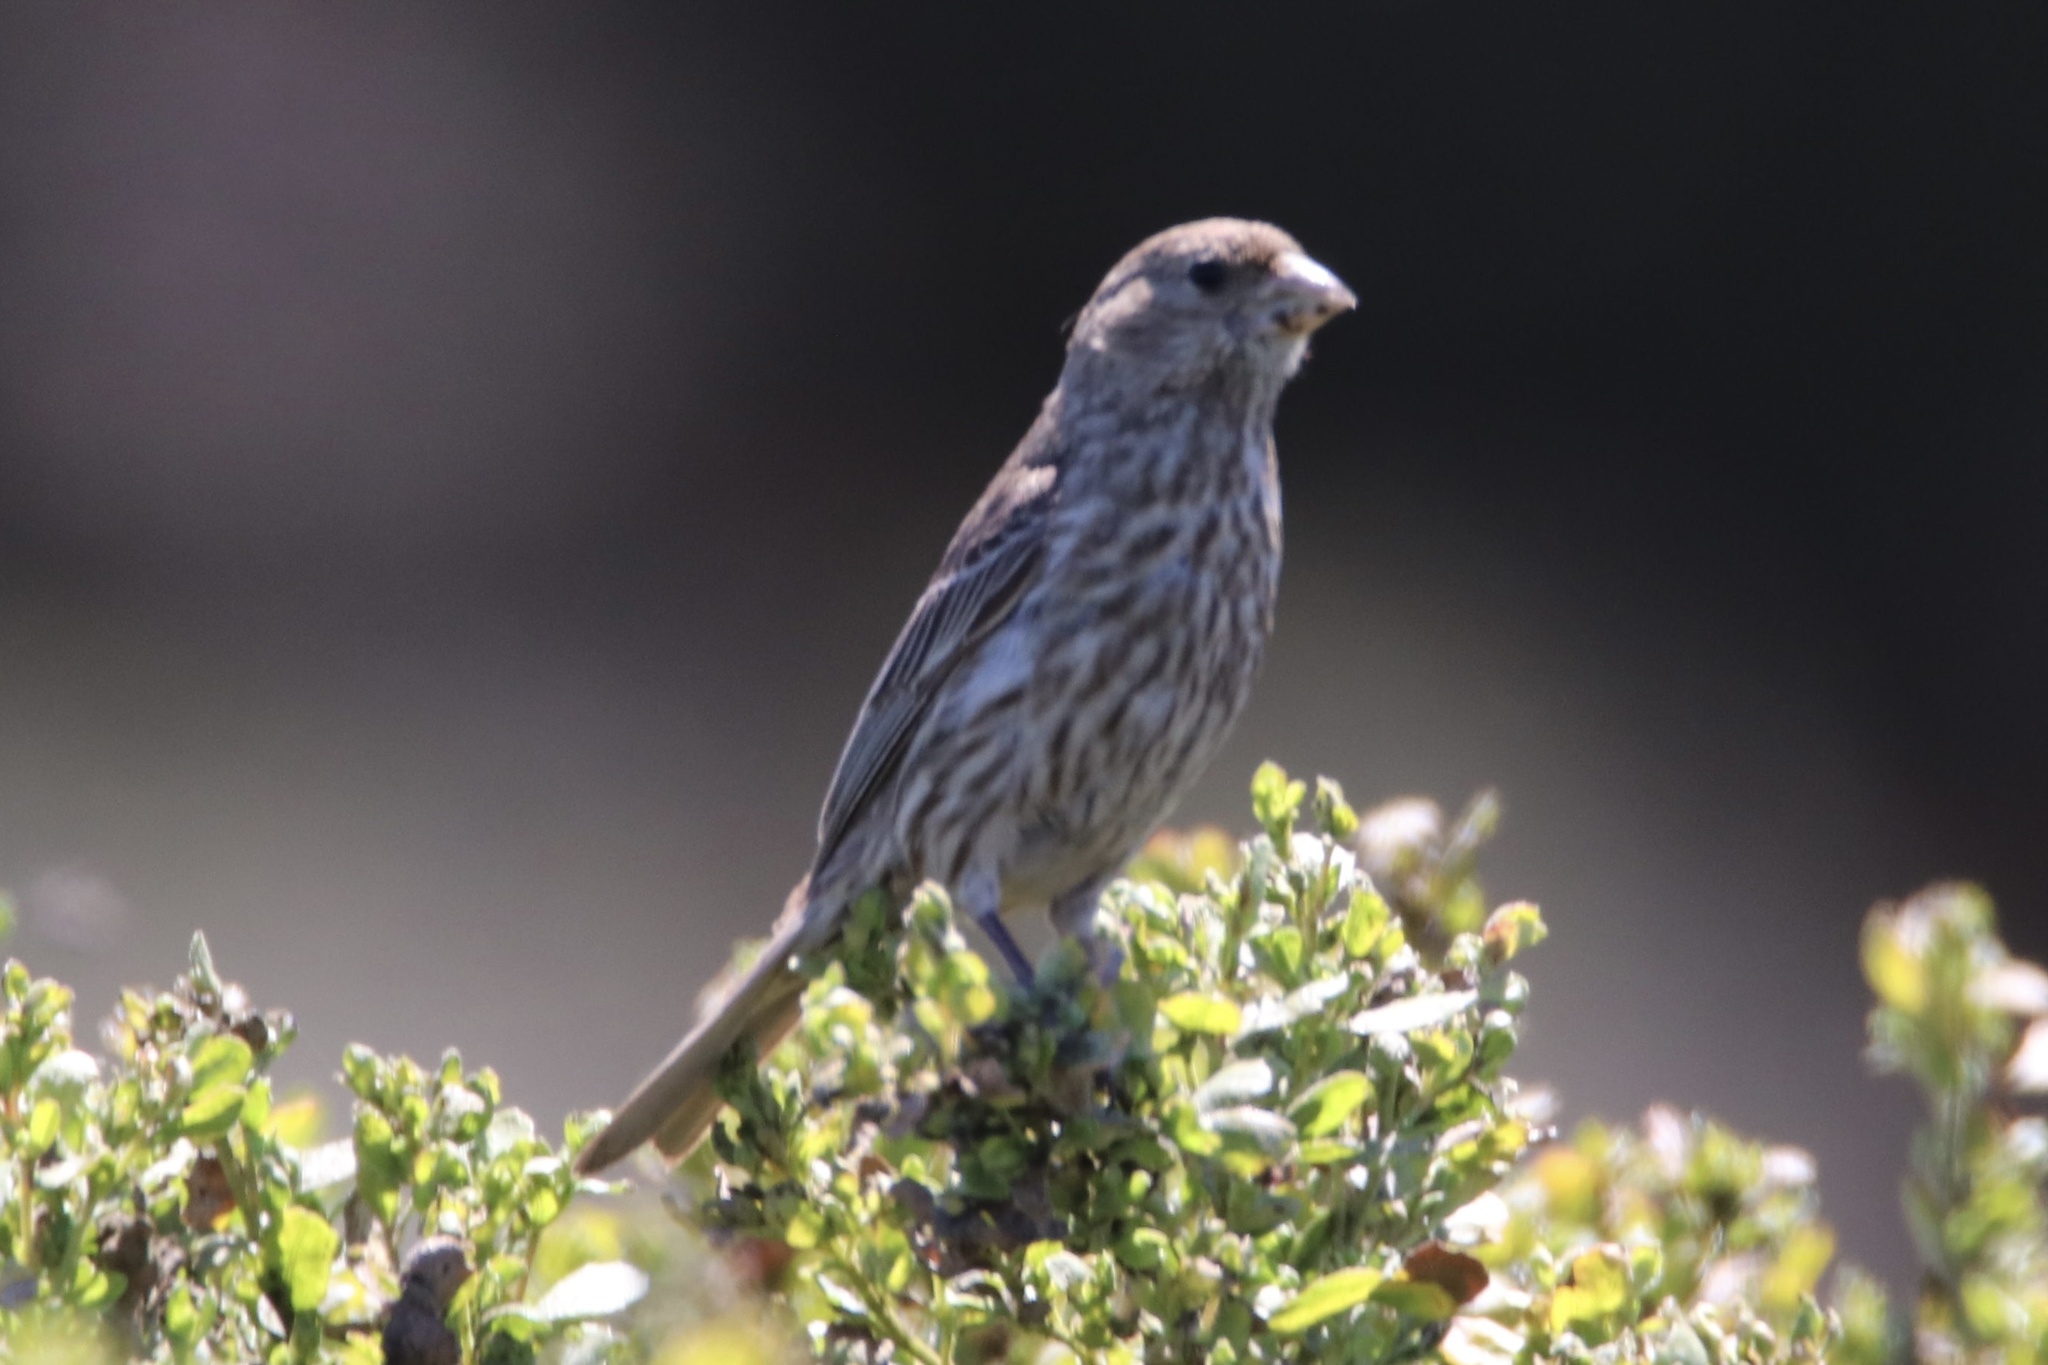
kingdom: Animalia
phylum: Chordata
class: Aves
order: Passeriformes
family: Fringillidae
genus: Haemorhous
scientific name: Haemorhous mexicanus
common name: House finch
